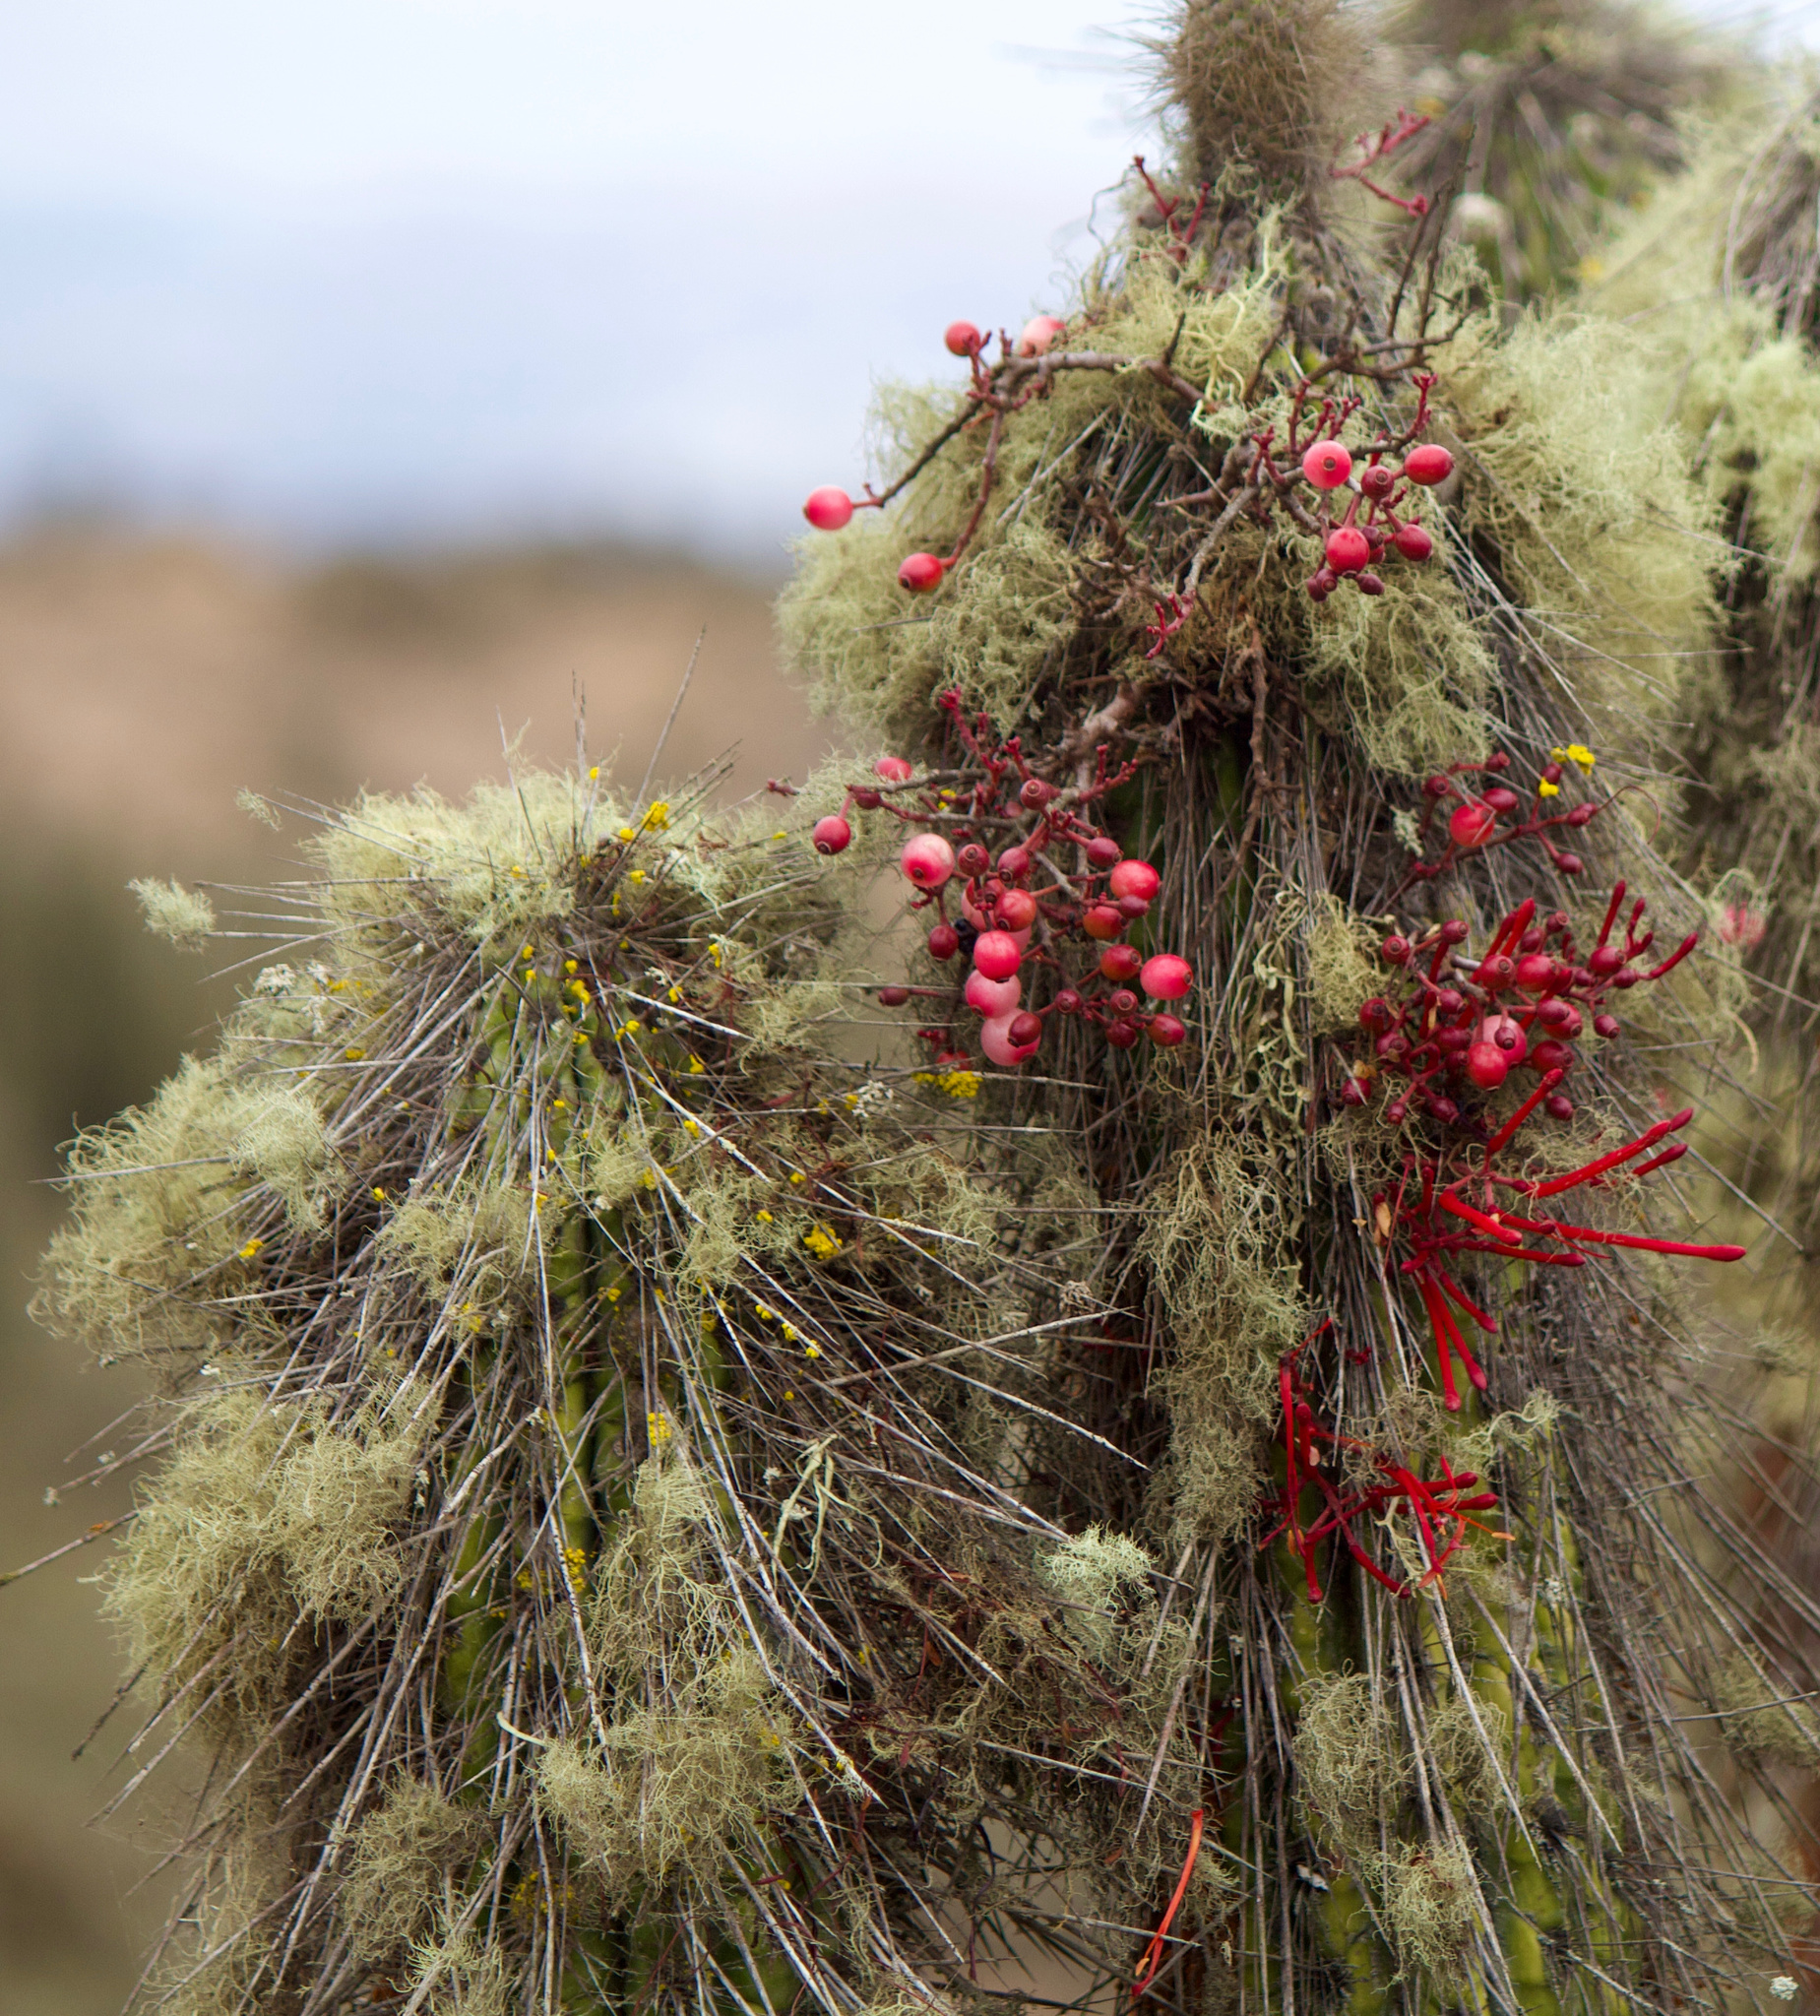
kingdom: Plantae
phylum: Tracheophyta
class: Magnoliopsida
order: Santalales
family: Loranthaceae
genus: Tristerix
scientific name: Tristerix aphyllus
